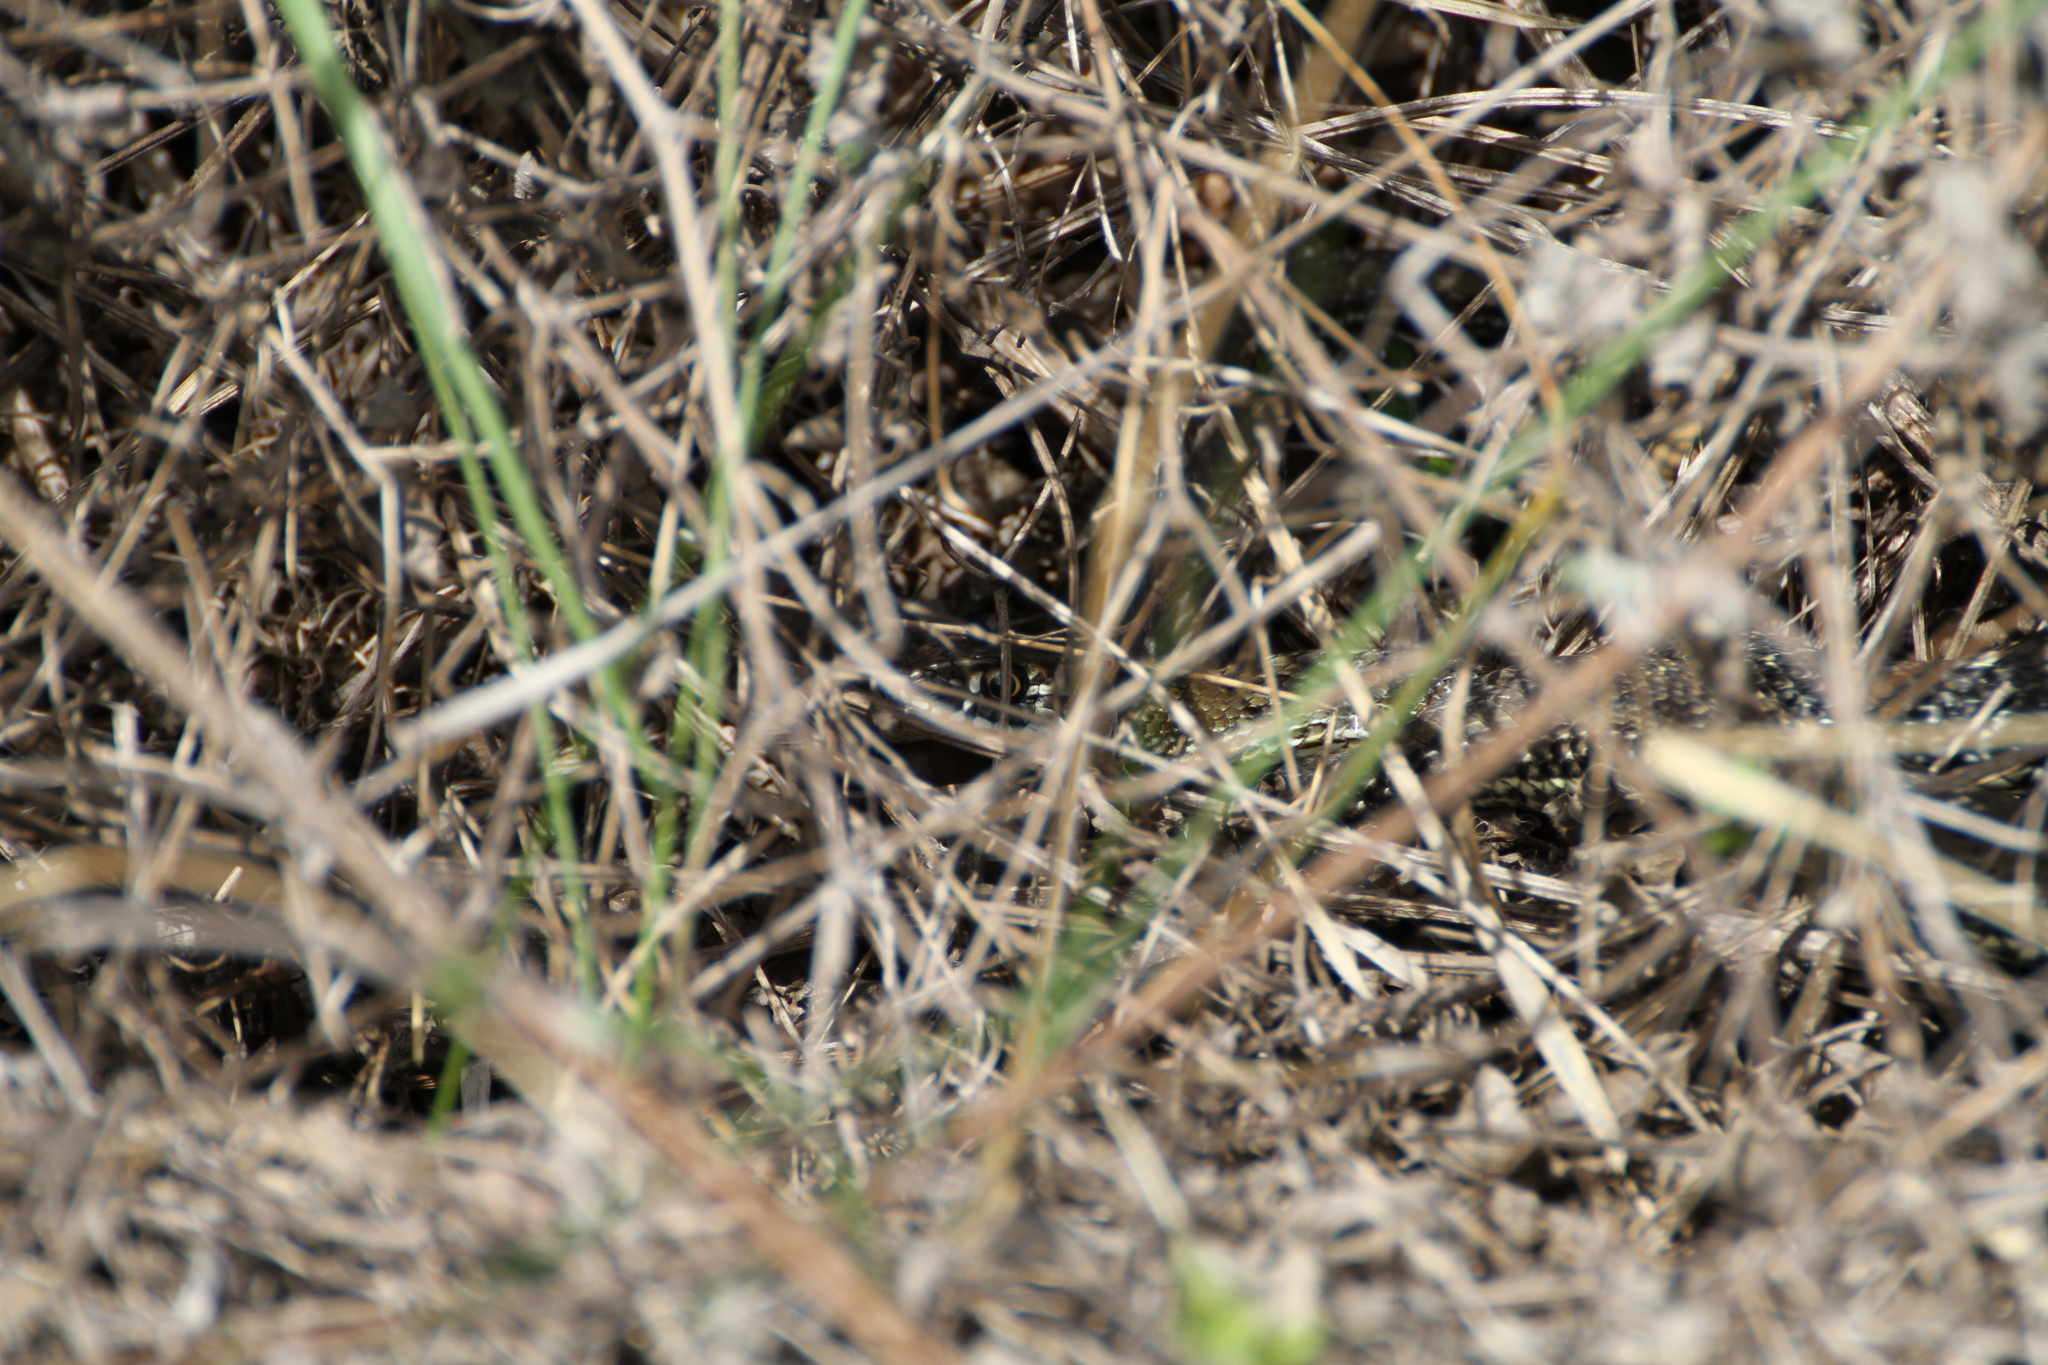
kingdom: Animalia
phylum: Chordata
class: Squamata
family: Psammophiidae
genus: Malpolon
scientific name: Malpolon monspessulanus
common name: Montpellier snake
